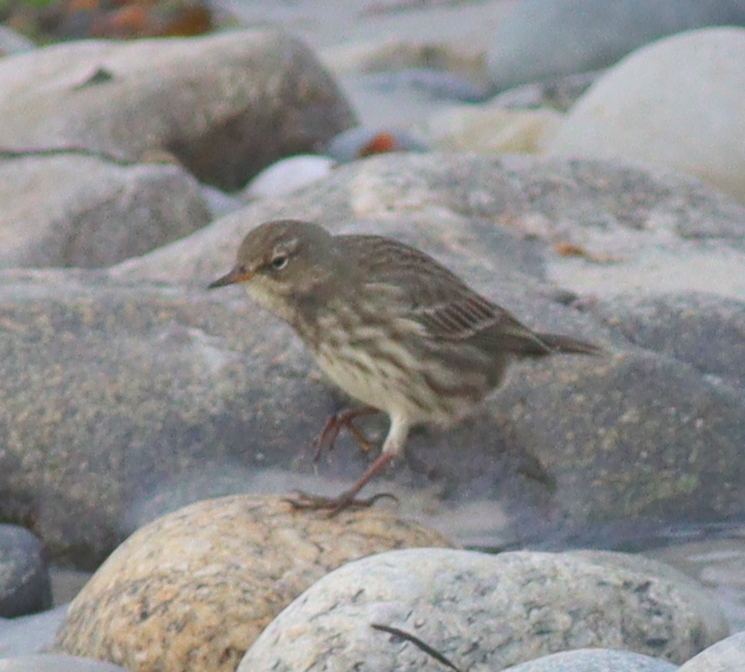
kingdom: Animalia
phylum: Chordata
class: Aves
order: Passeriformes
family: Motacillidae
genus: Anthus
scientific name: Anthus petrosus
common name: Eurasian rock pipit
